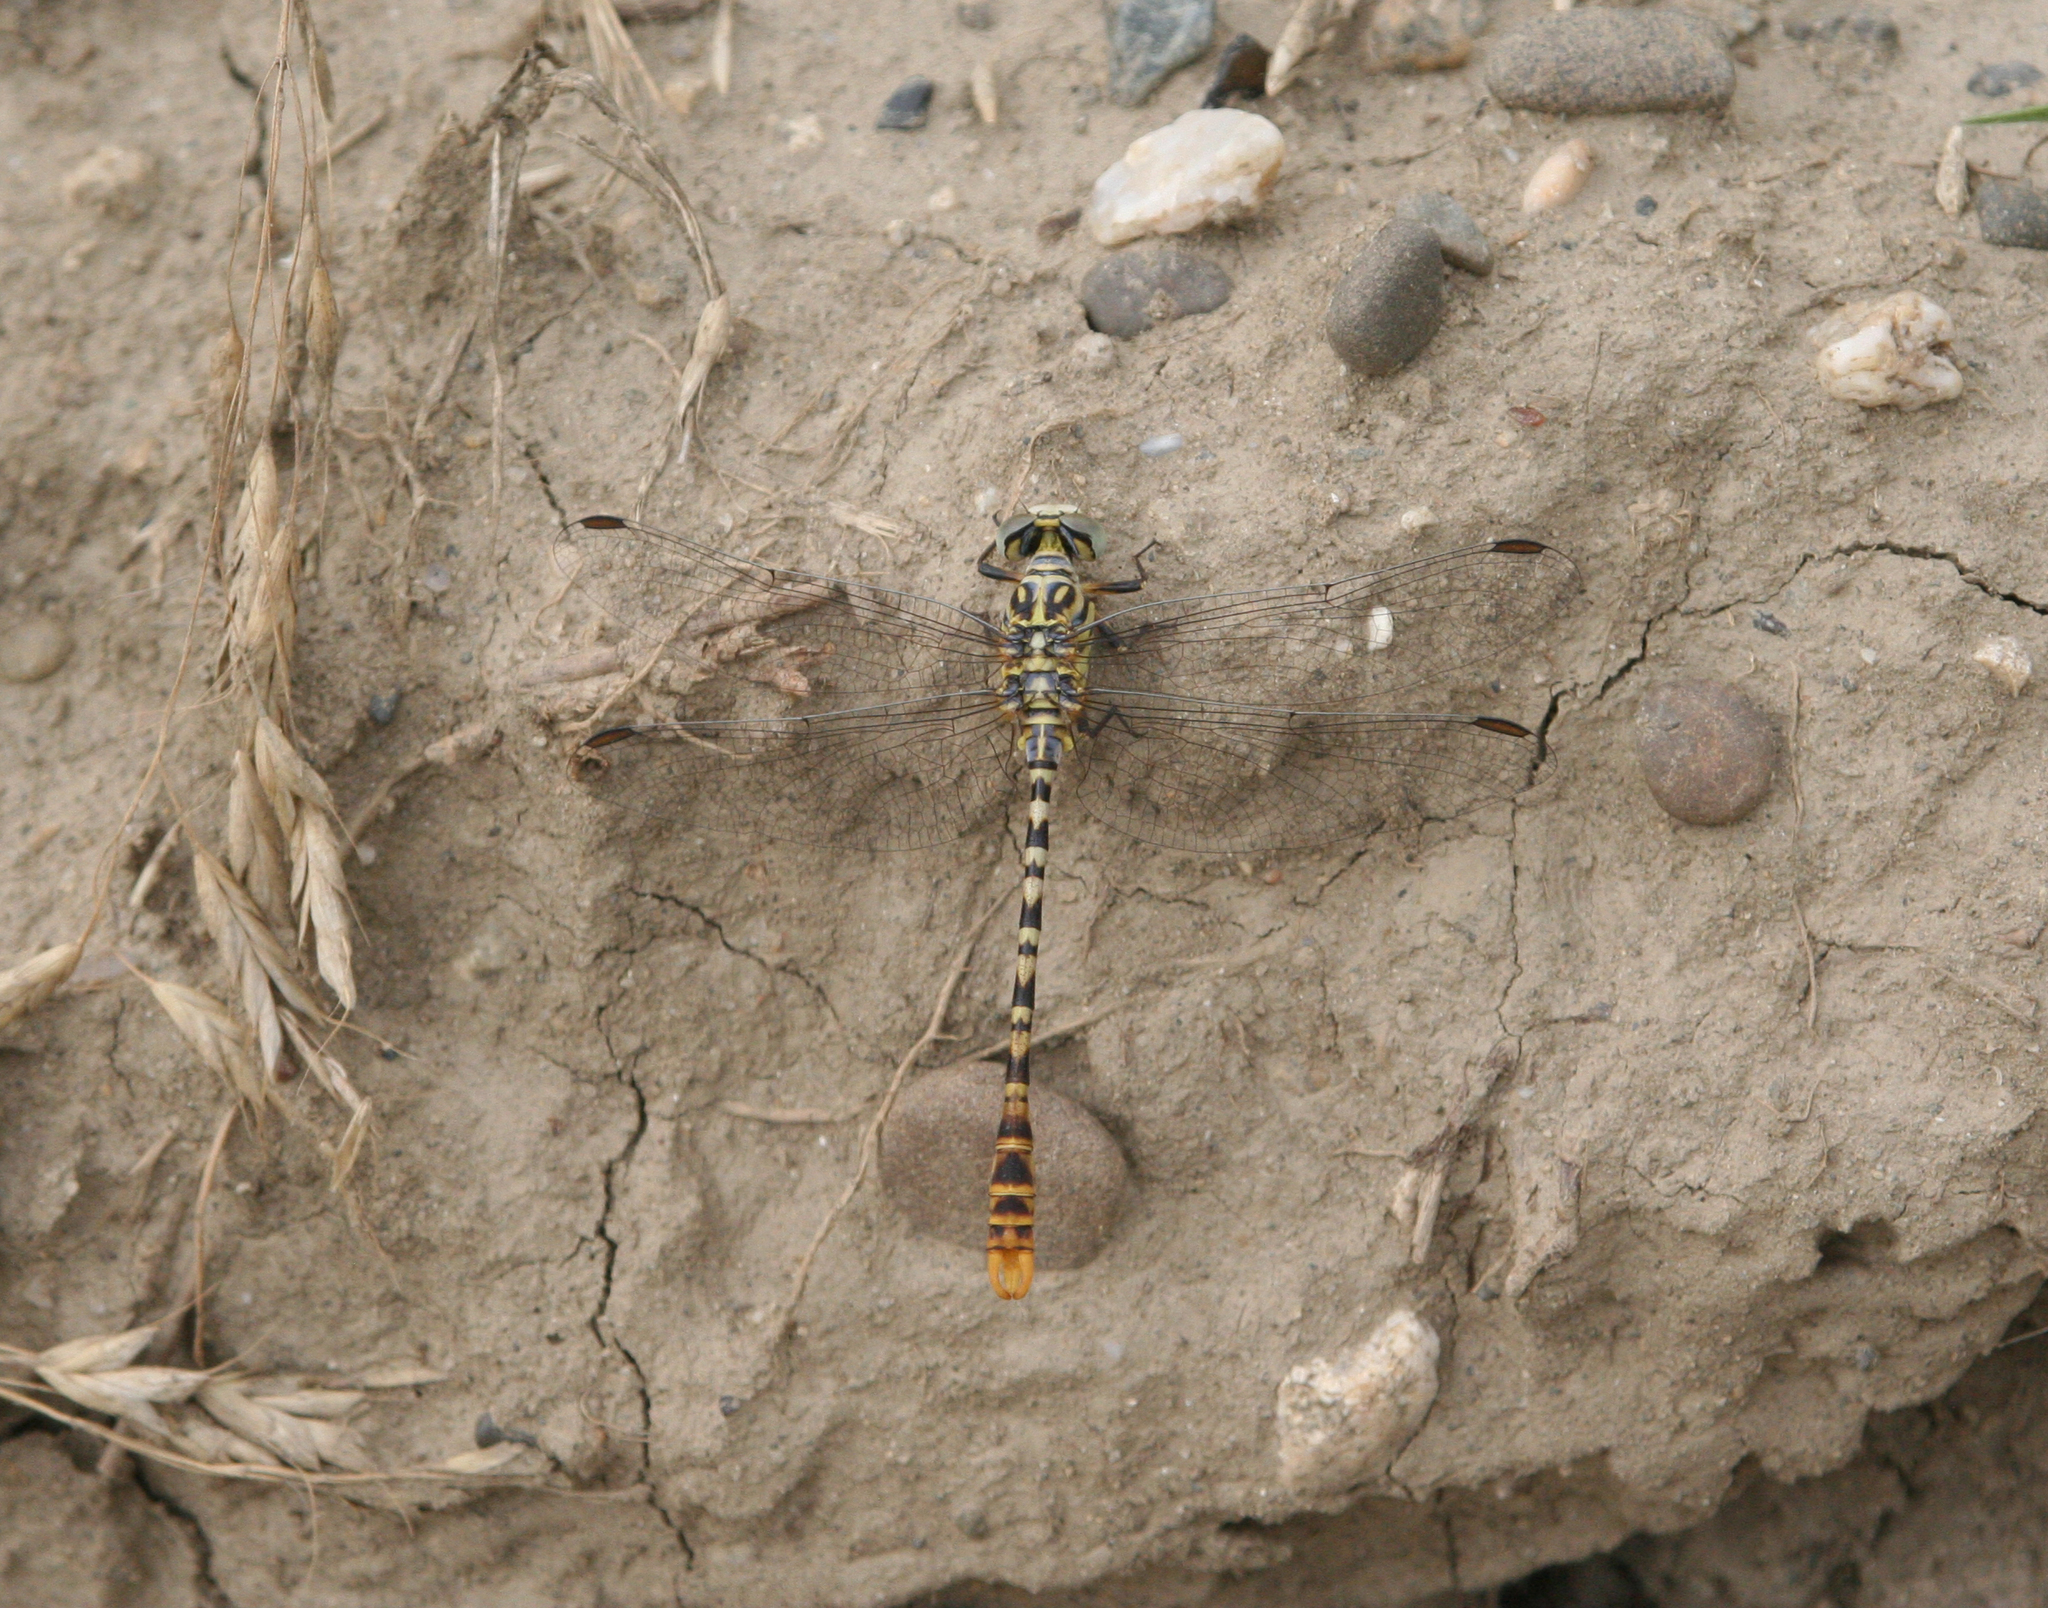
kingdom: Animalia
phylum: Arthropoda
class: Insecta
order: Odonata
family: Gomphidae
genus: Onychogomphus
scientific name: Onychogomphus flexuosus
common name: Waved pincertail
